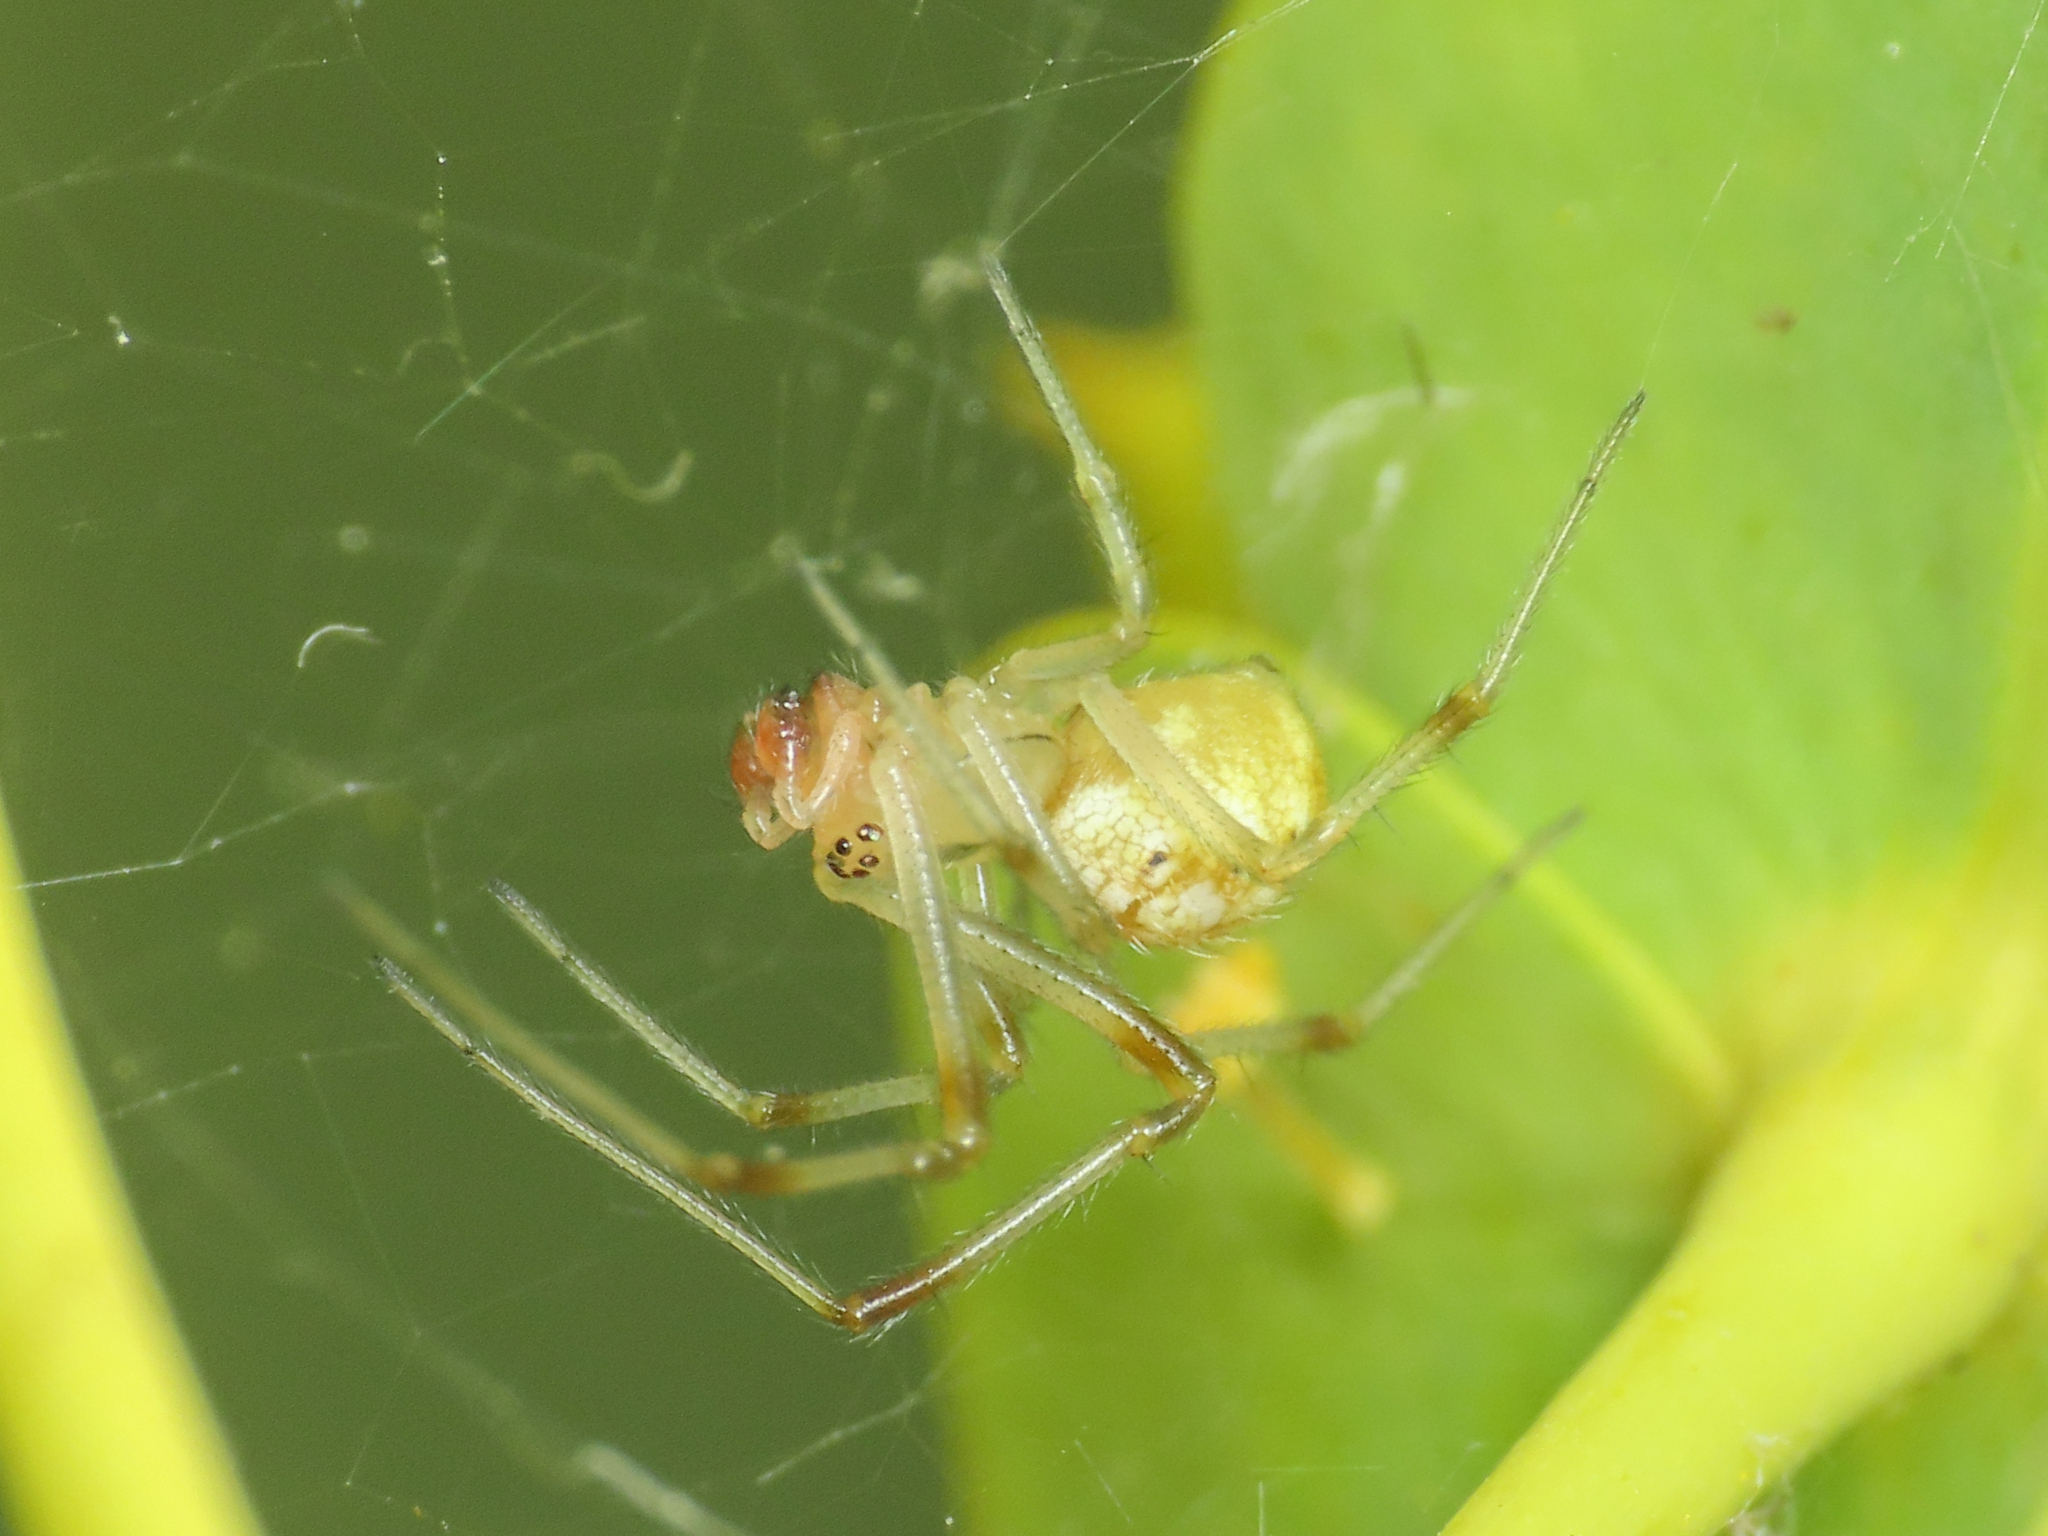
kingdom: Animalia
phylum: Arthropoda
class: Arachnida
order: Araneae
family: Theridiidae
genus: Phylloneta
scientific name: Phylloneta impressa
